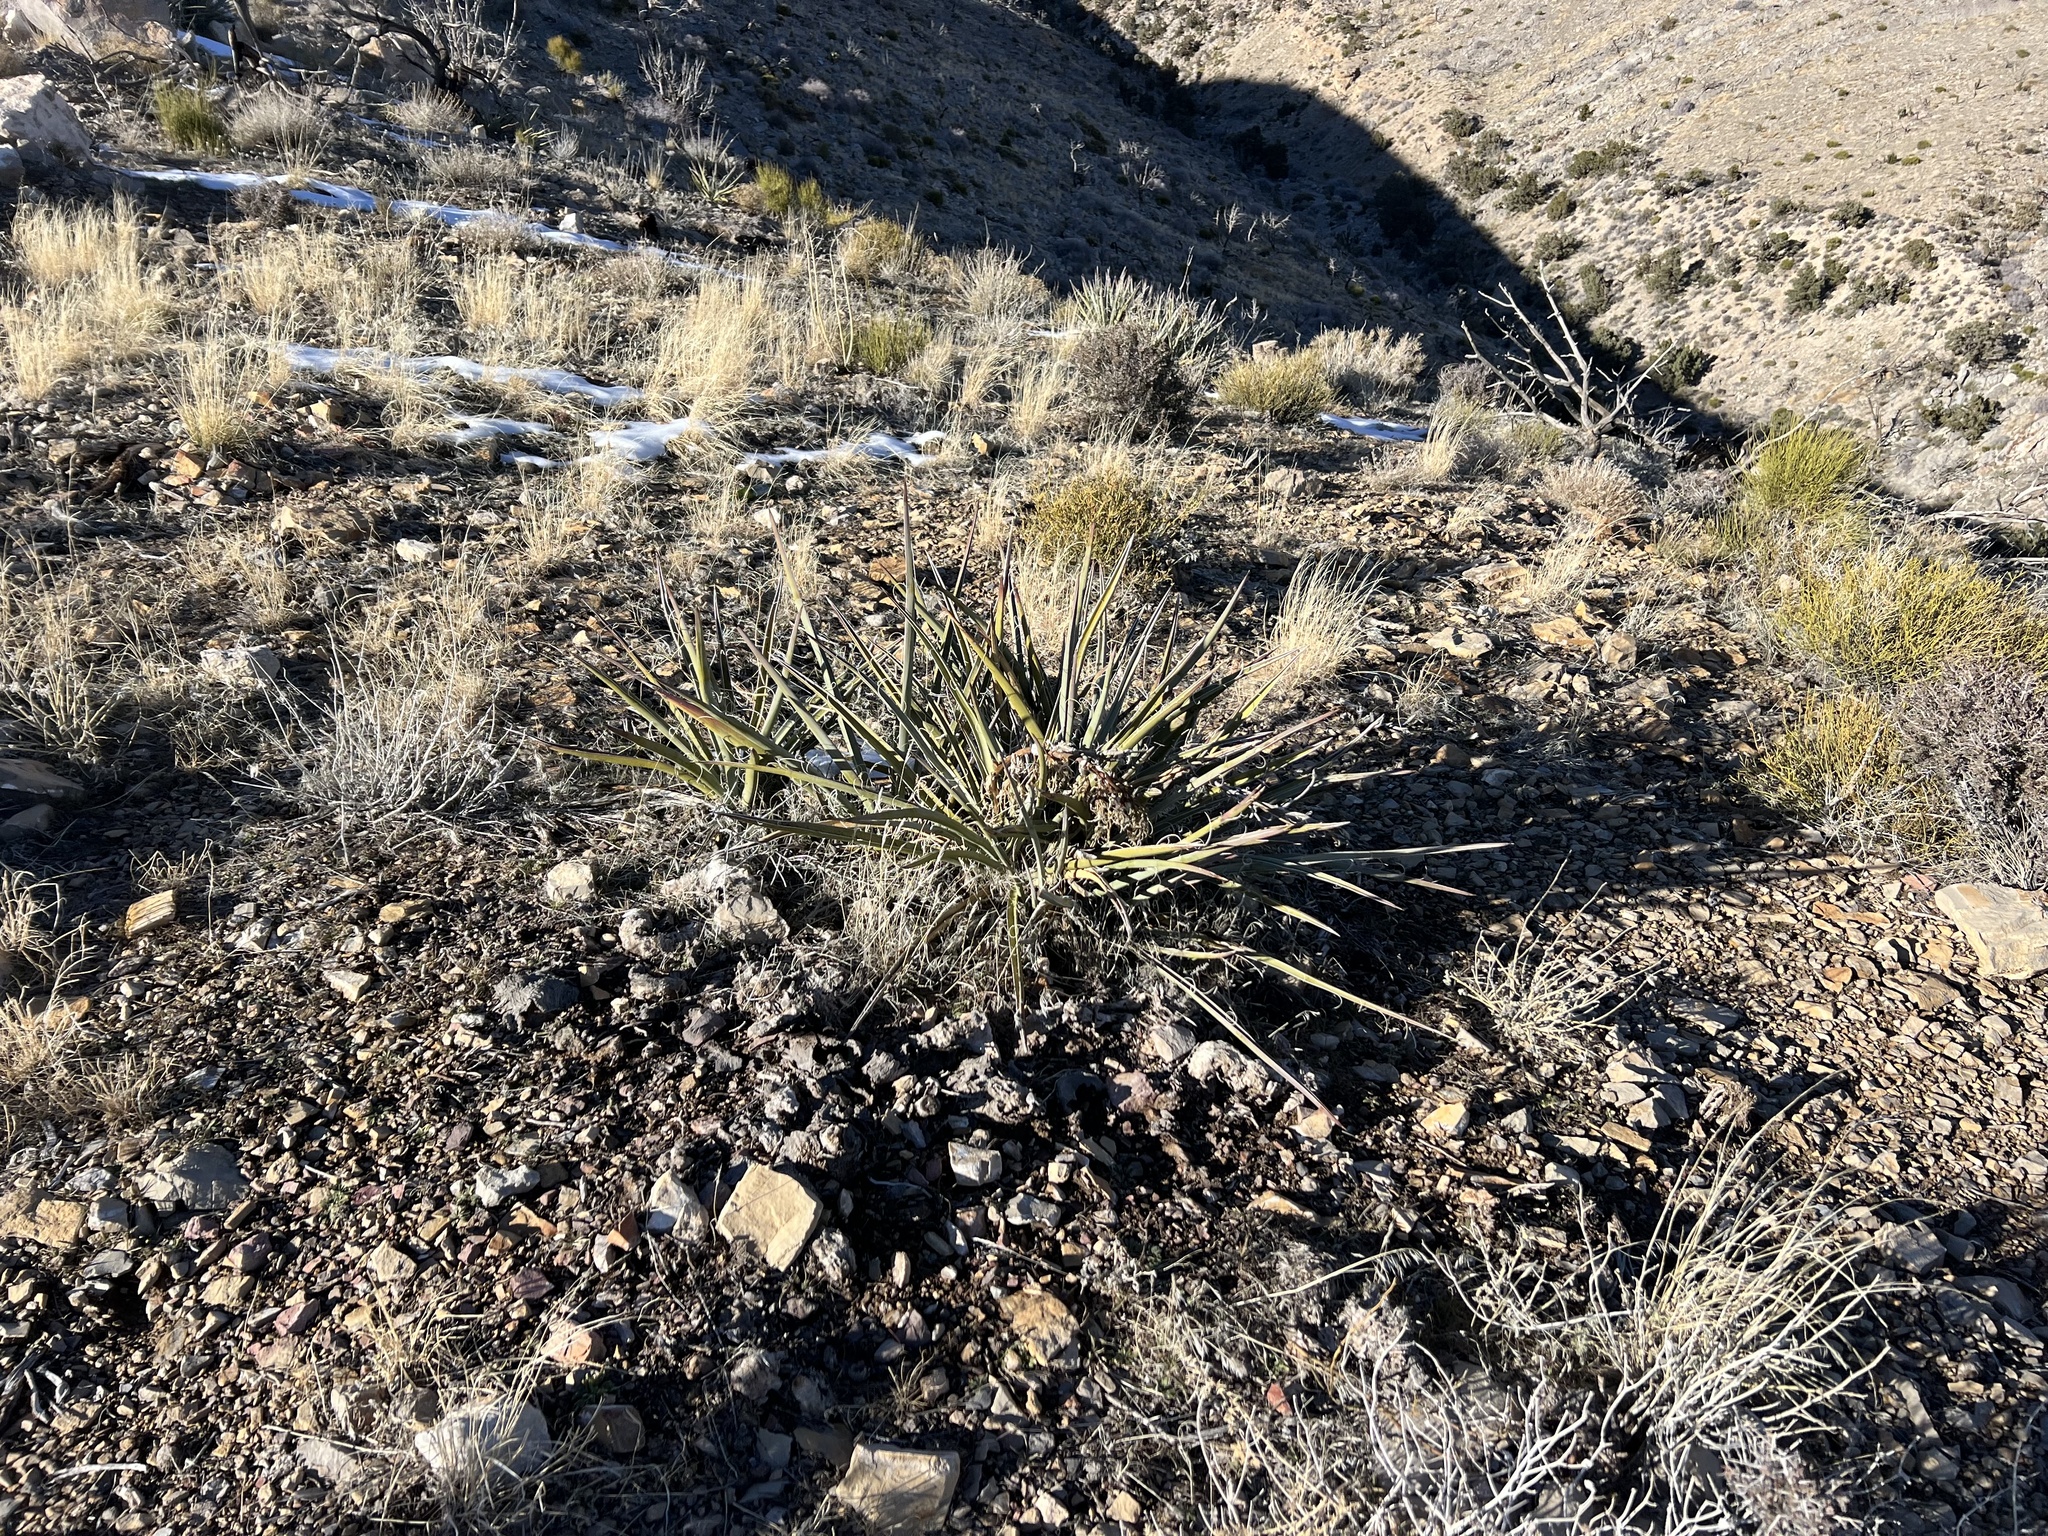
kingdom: Plantae
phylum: Tracheophyta
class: Liliopsida
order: Asparagales
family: Asparagaceae
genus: Yucca
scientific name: Yucca baccata
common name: Banana yucca
